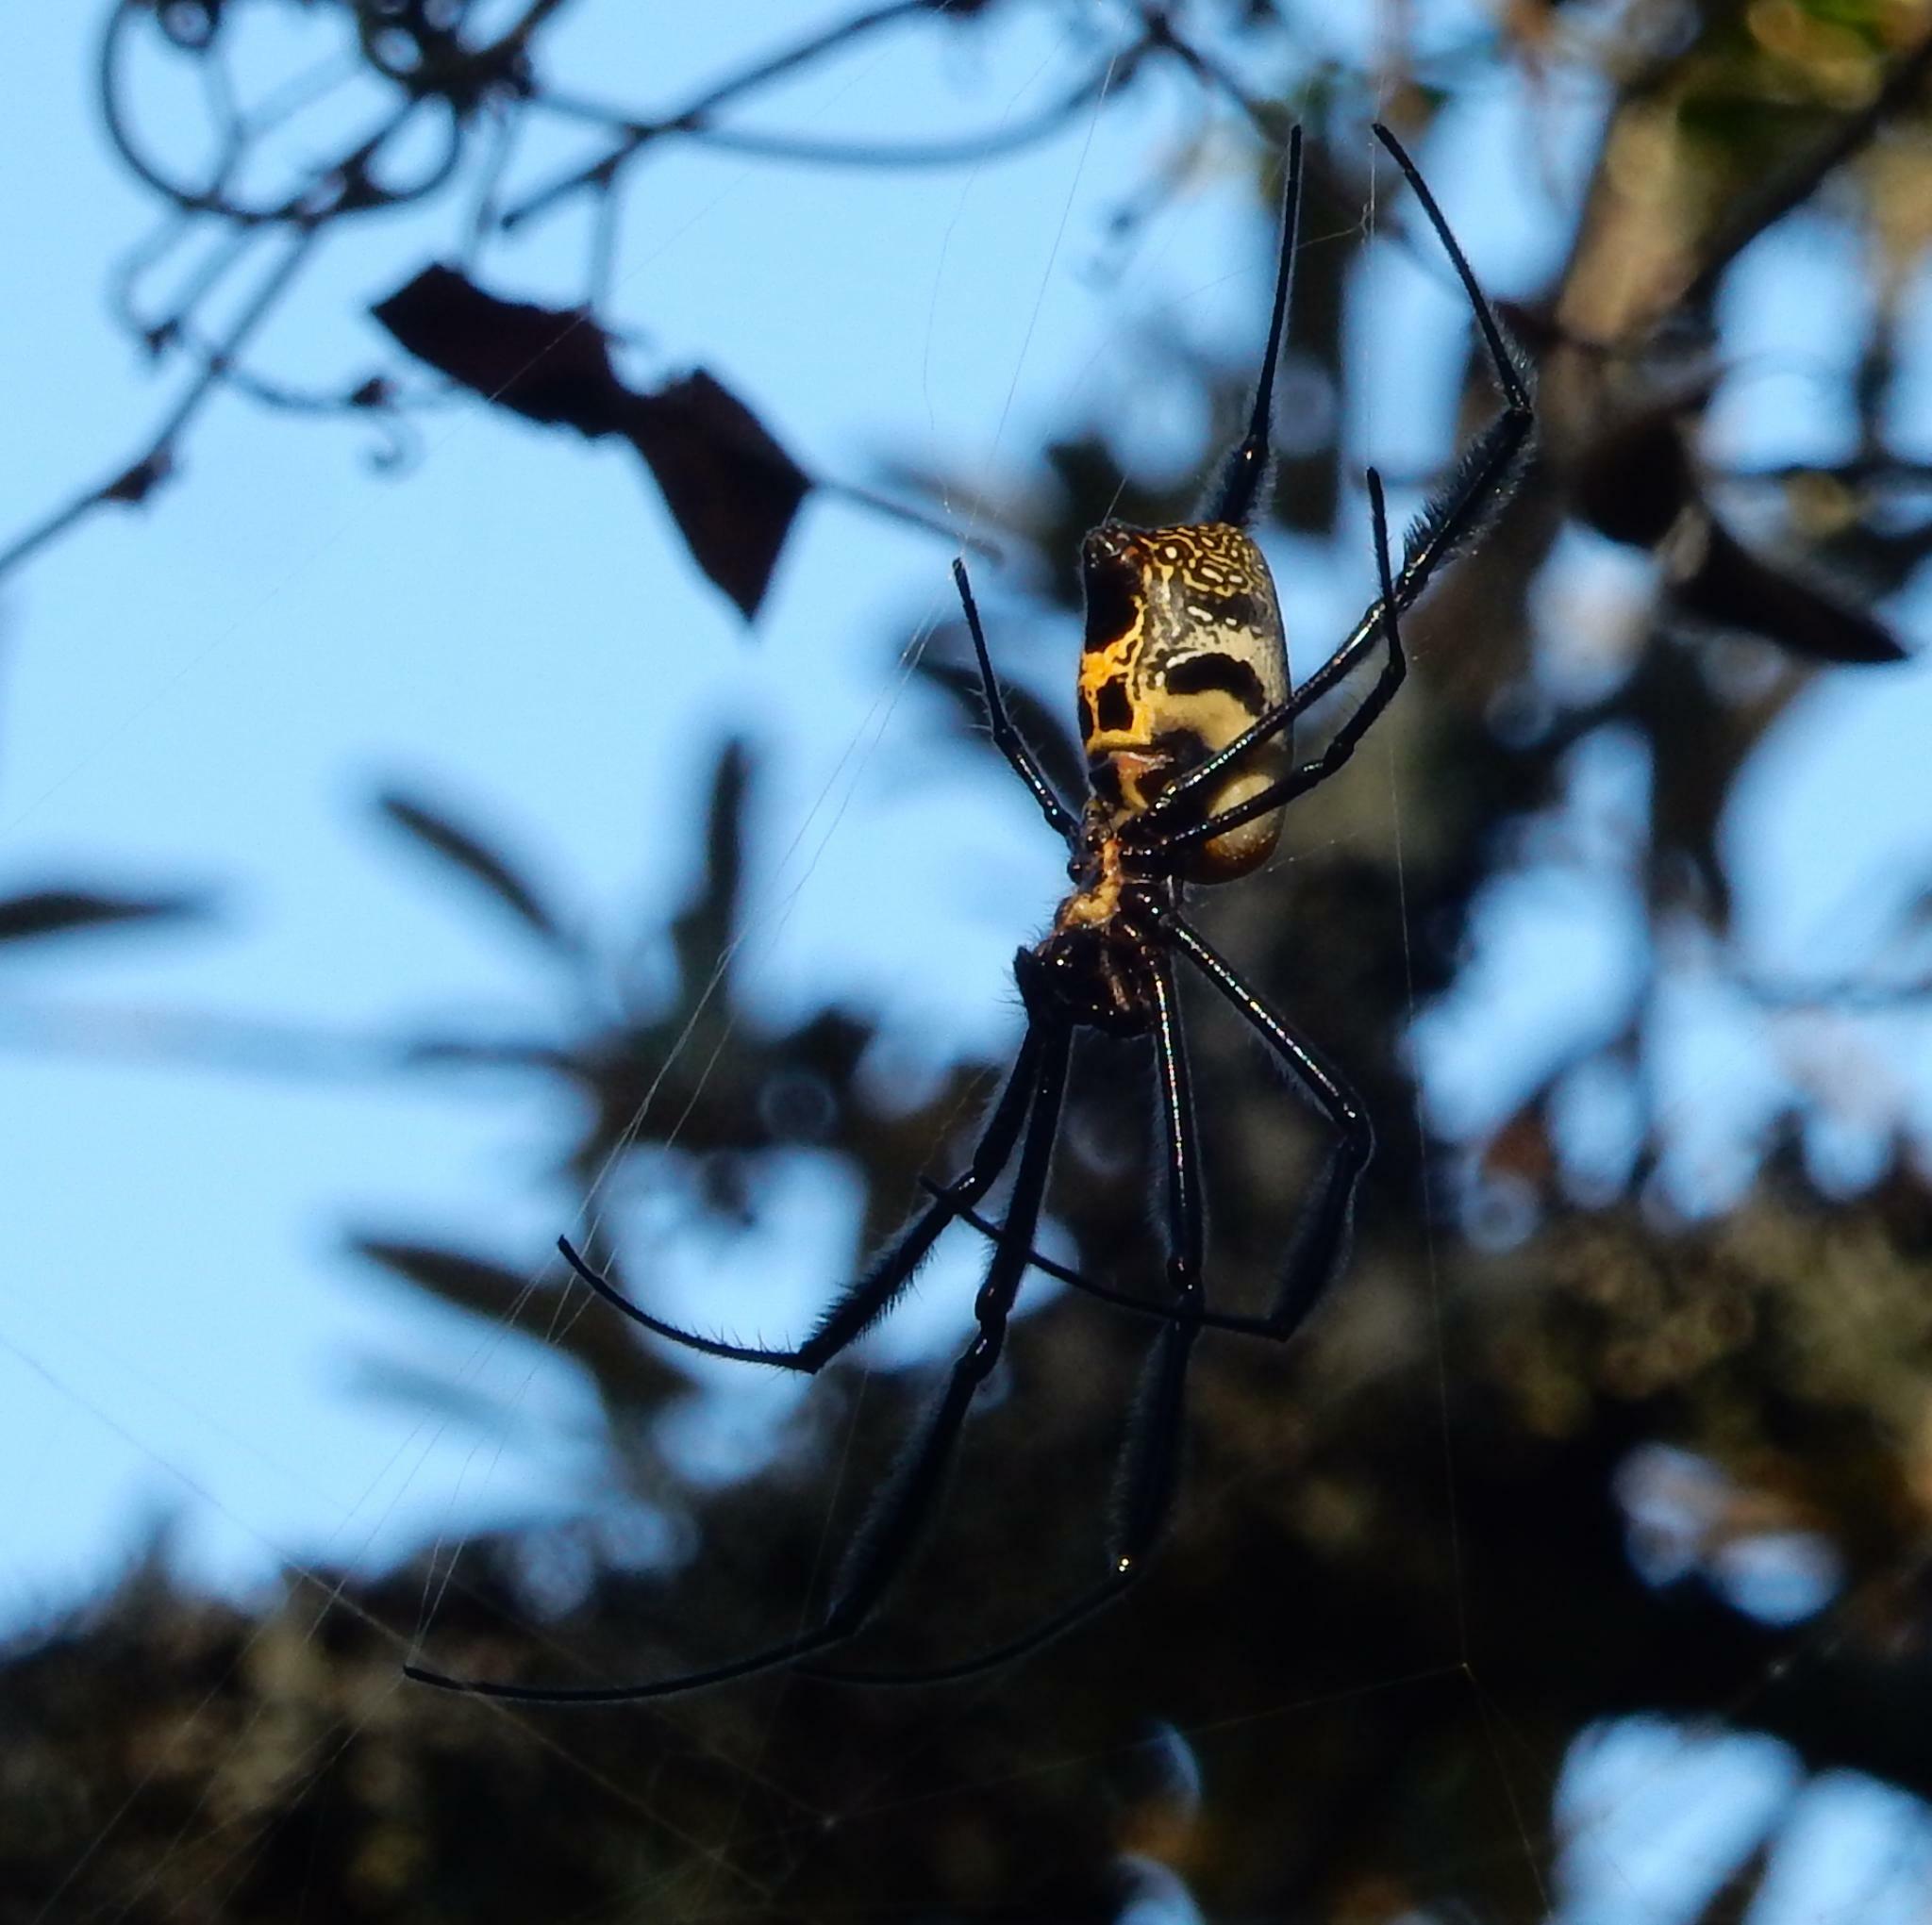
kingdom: Animalia
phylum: Arthropoda
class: Arachnida
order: Araneae
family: Araneidae
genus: Trichonephila
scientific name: Trichonephila fenestrata
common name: Hairy golden orb weaver
